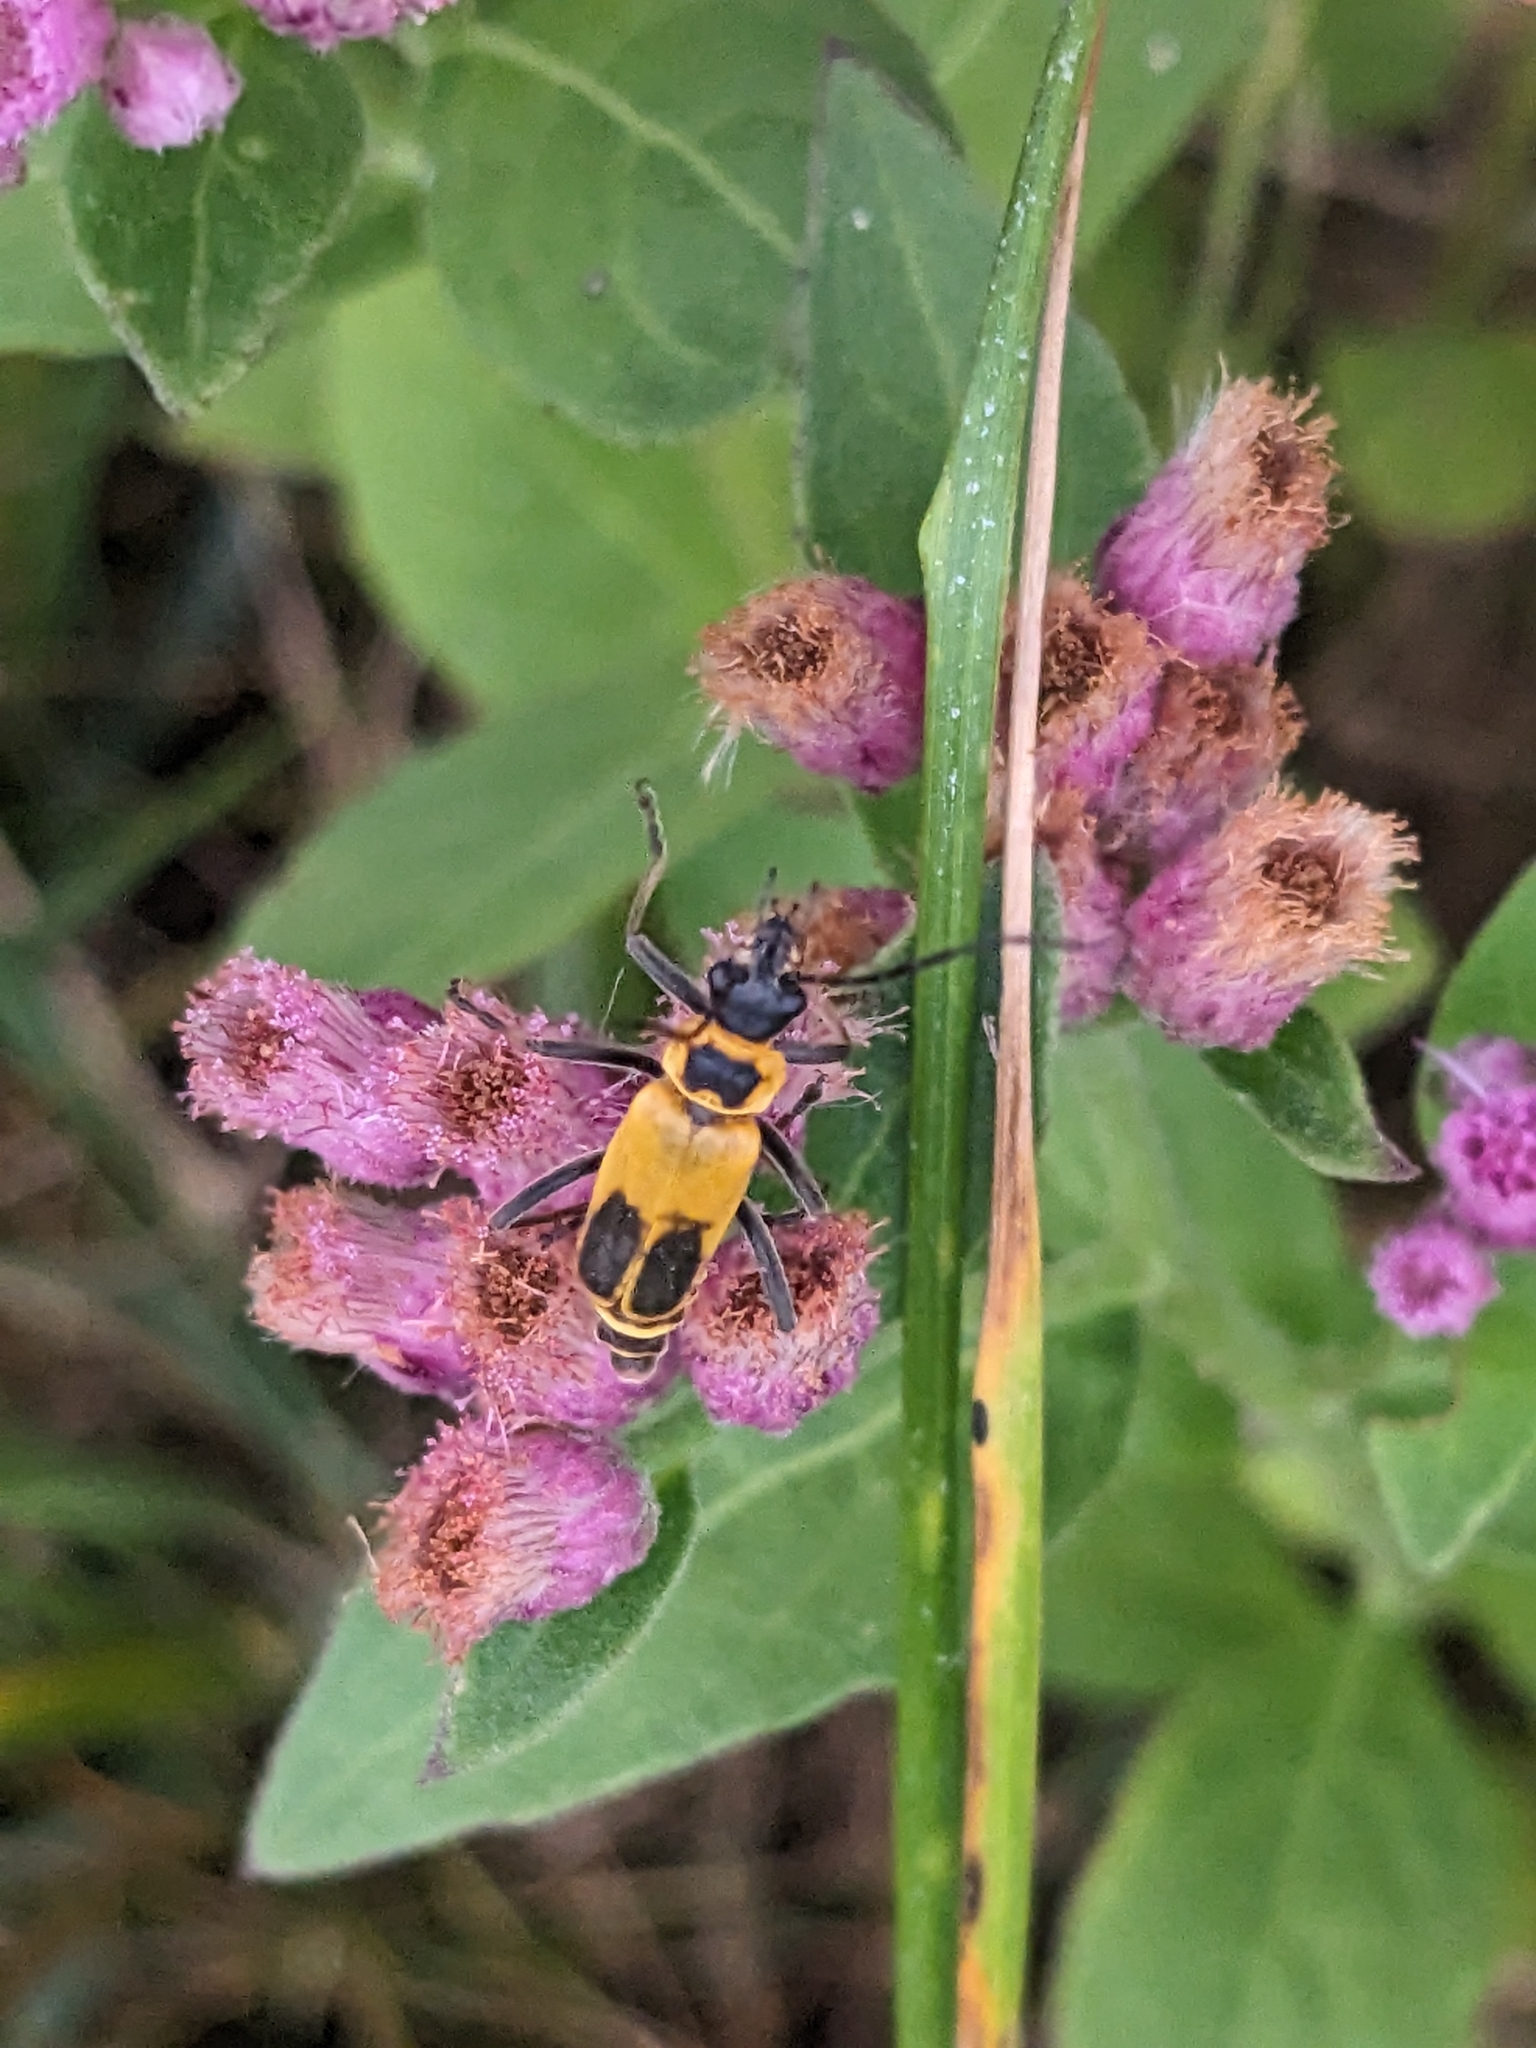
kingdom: Animalia
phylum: Arthropoda
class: Insecta
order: Coleoptera
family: Cantharidae
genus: Chauliognathus
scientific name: Chauliognathus pensylvanicus
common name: Goldenrod soldier beetle
